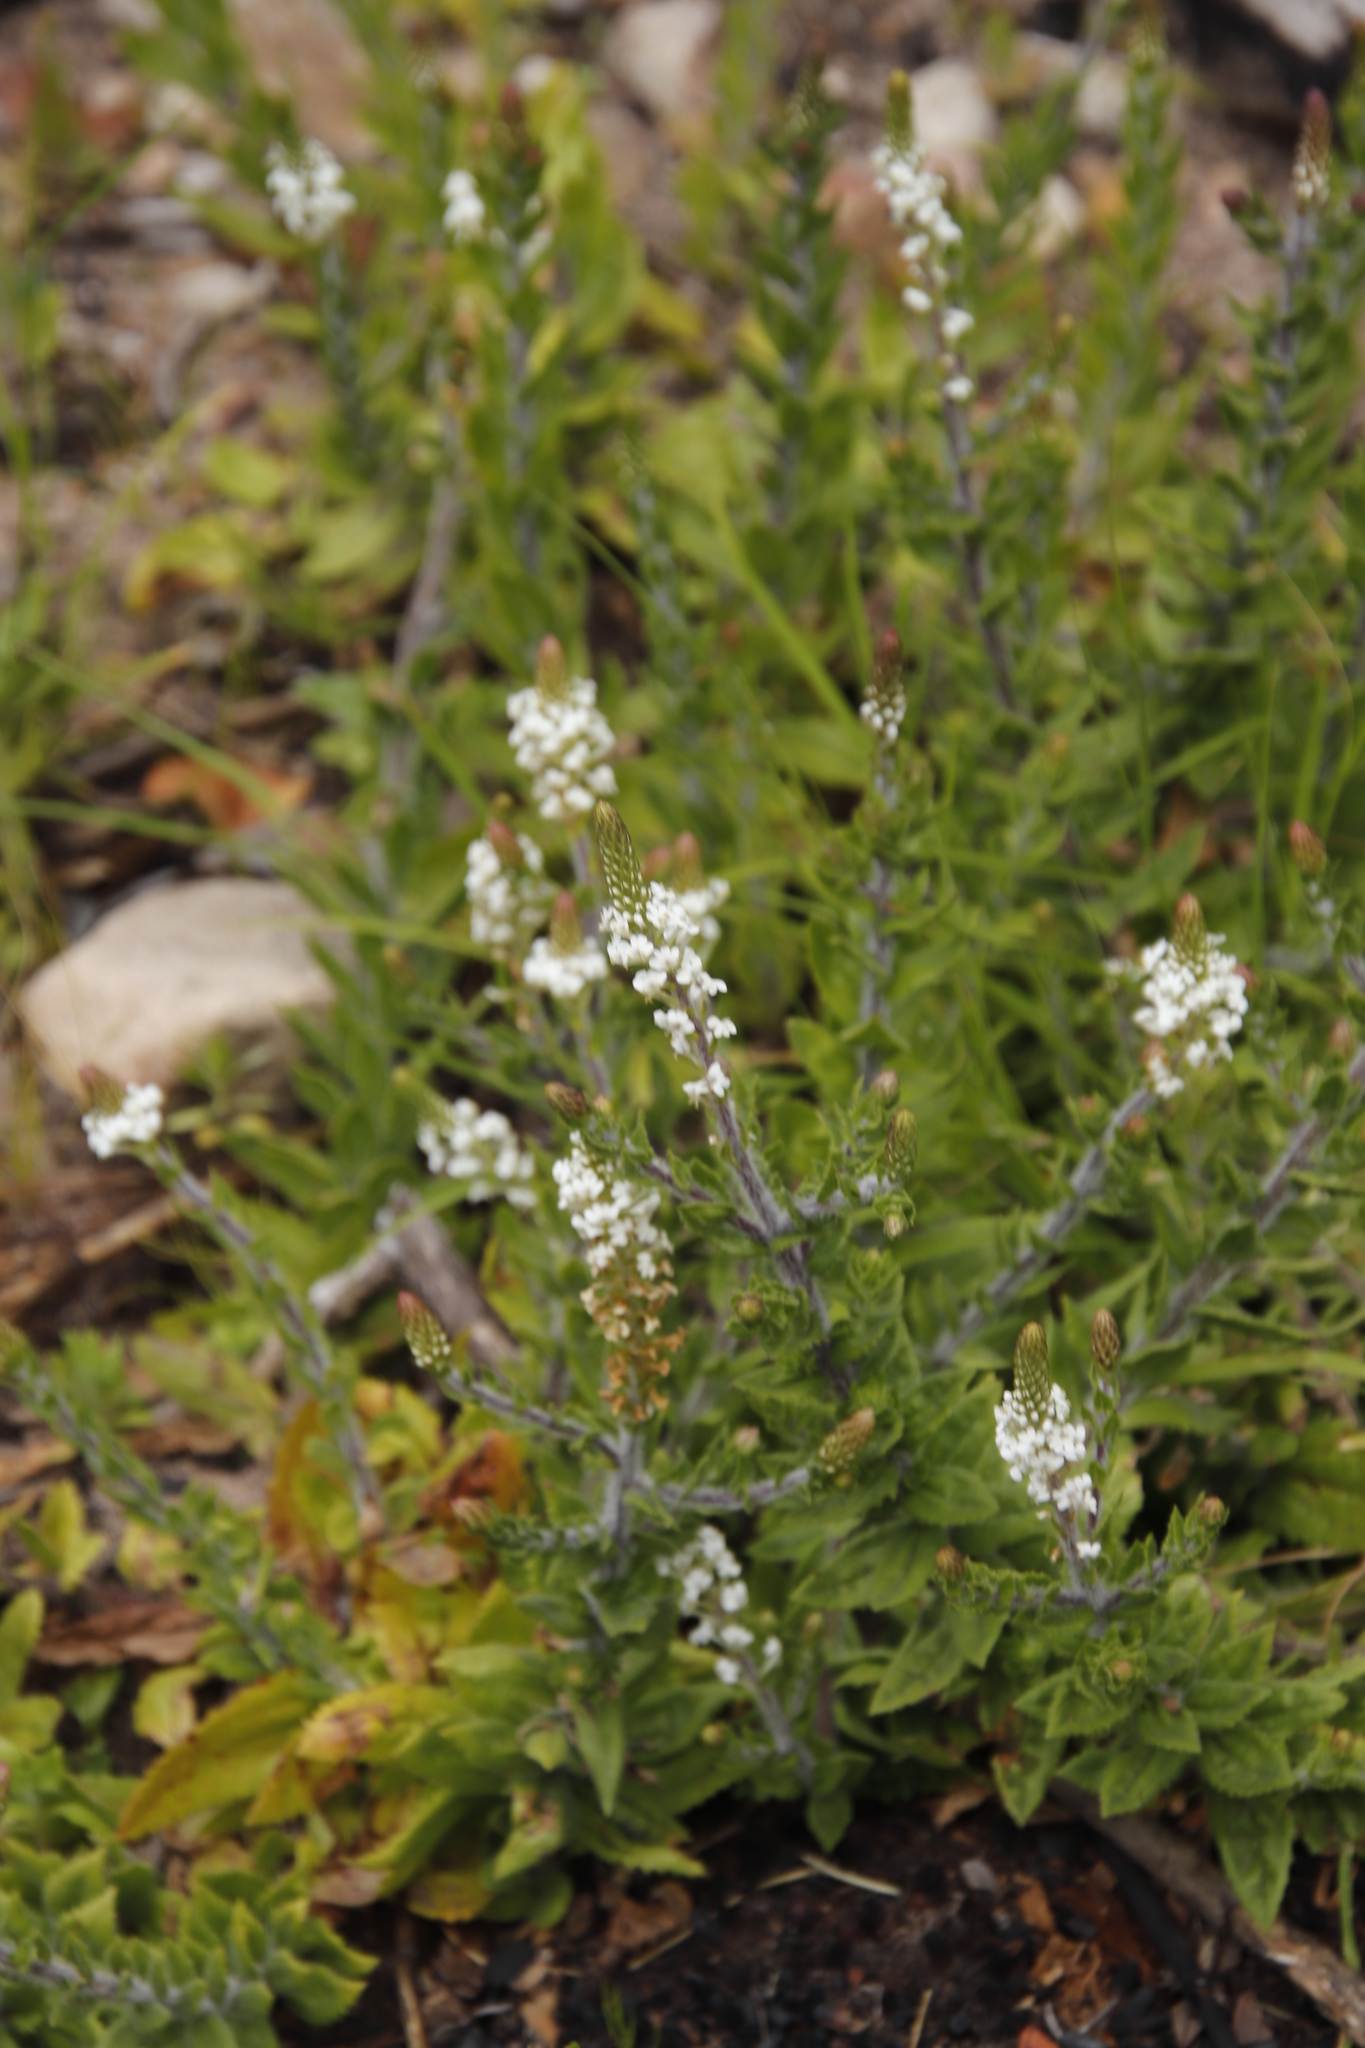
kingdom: Plantae
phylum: Tracheophyta
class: Magnoliopsida
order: Lamiales
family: Scrophulariaceae
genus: Hebenstretia
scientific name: Hebenstretia lanceolata
